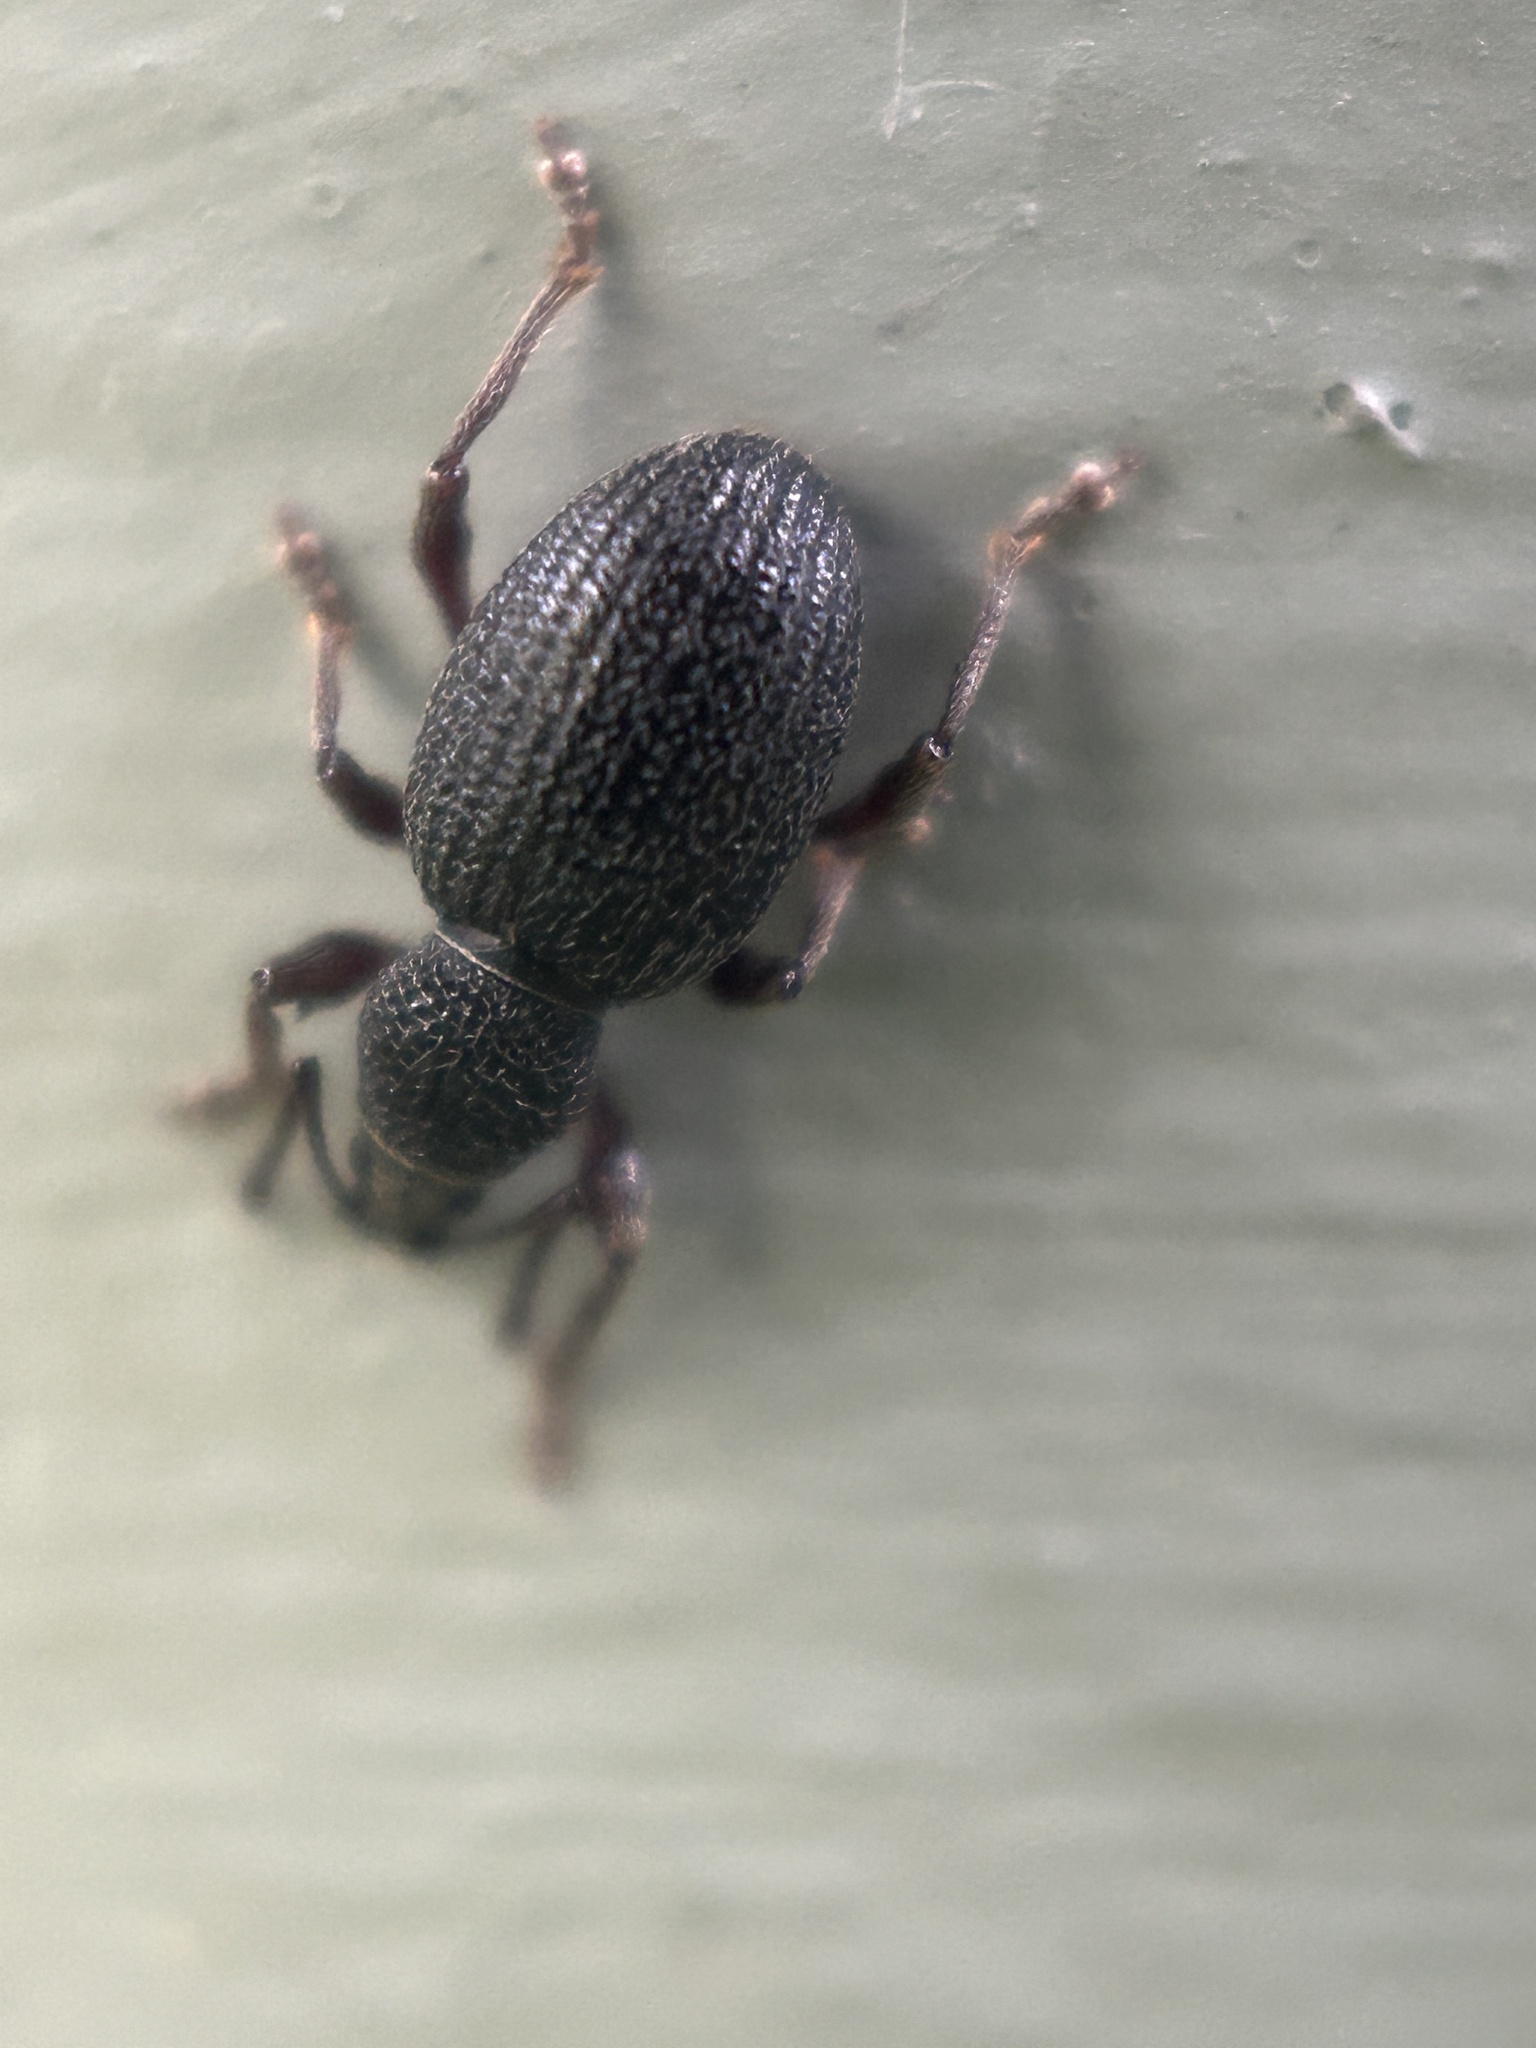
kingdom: Animalia
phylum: Arthropoda
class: Insecta
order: Coleoptera
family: Curculionidae
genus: Otiorhynchus
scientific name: Otiorhynchus ovatus
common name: Strawberry root weevil
